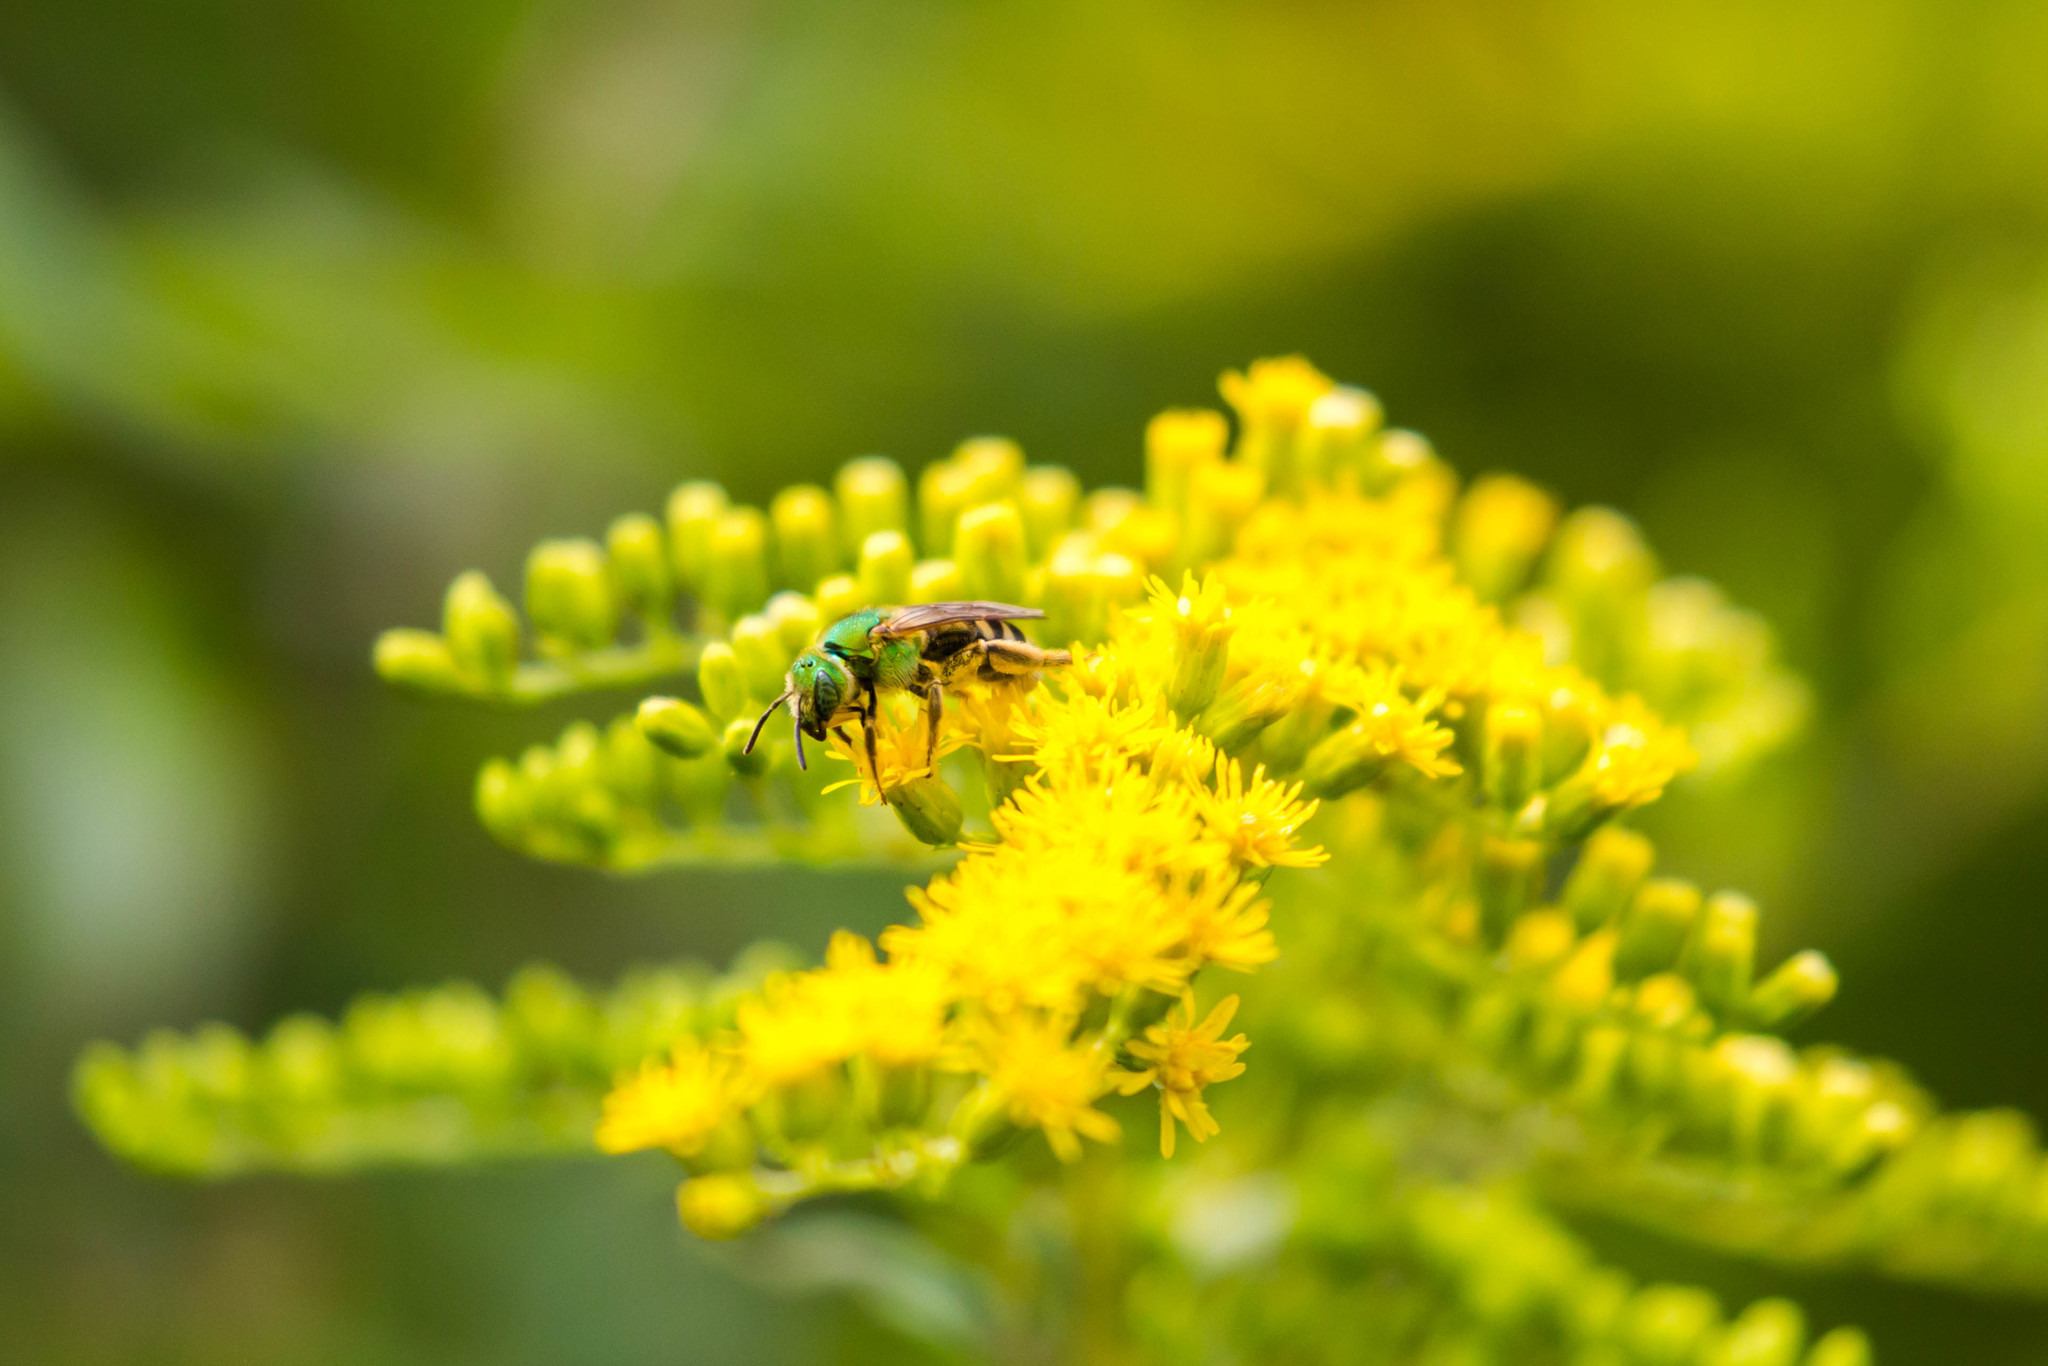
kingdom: Animalia
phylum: Arthropoda
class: Insecta
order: Hymenoptera
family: Halictidae
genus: Agapostemon
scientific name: Agapostemon splendens
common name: Brown-winged striped sweat bee
